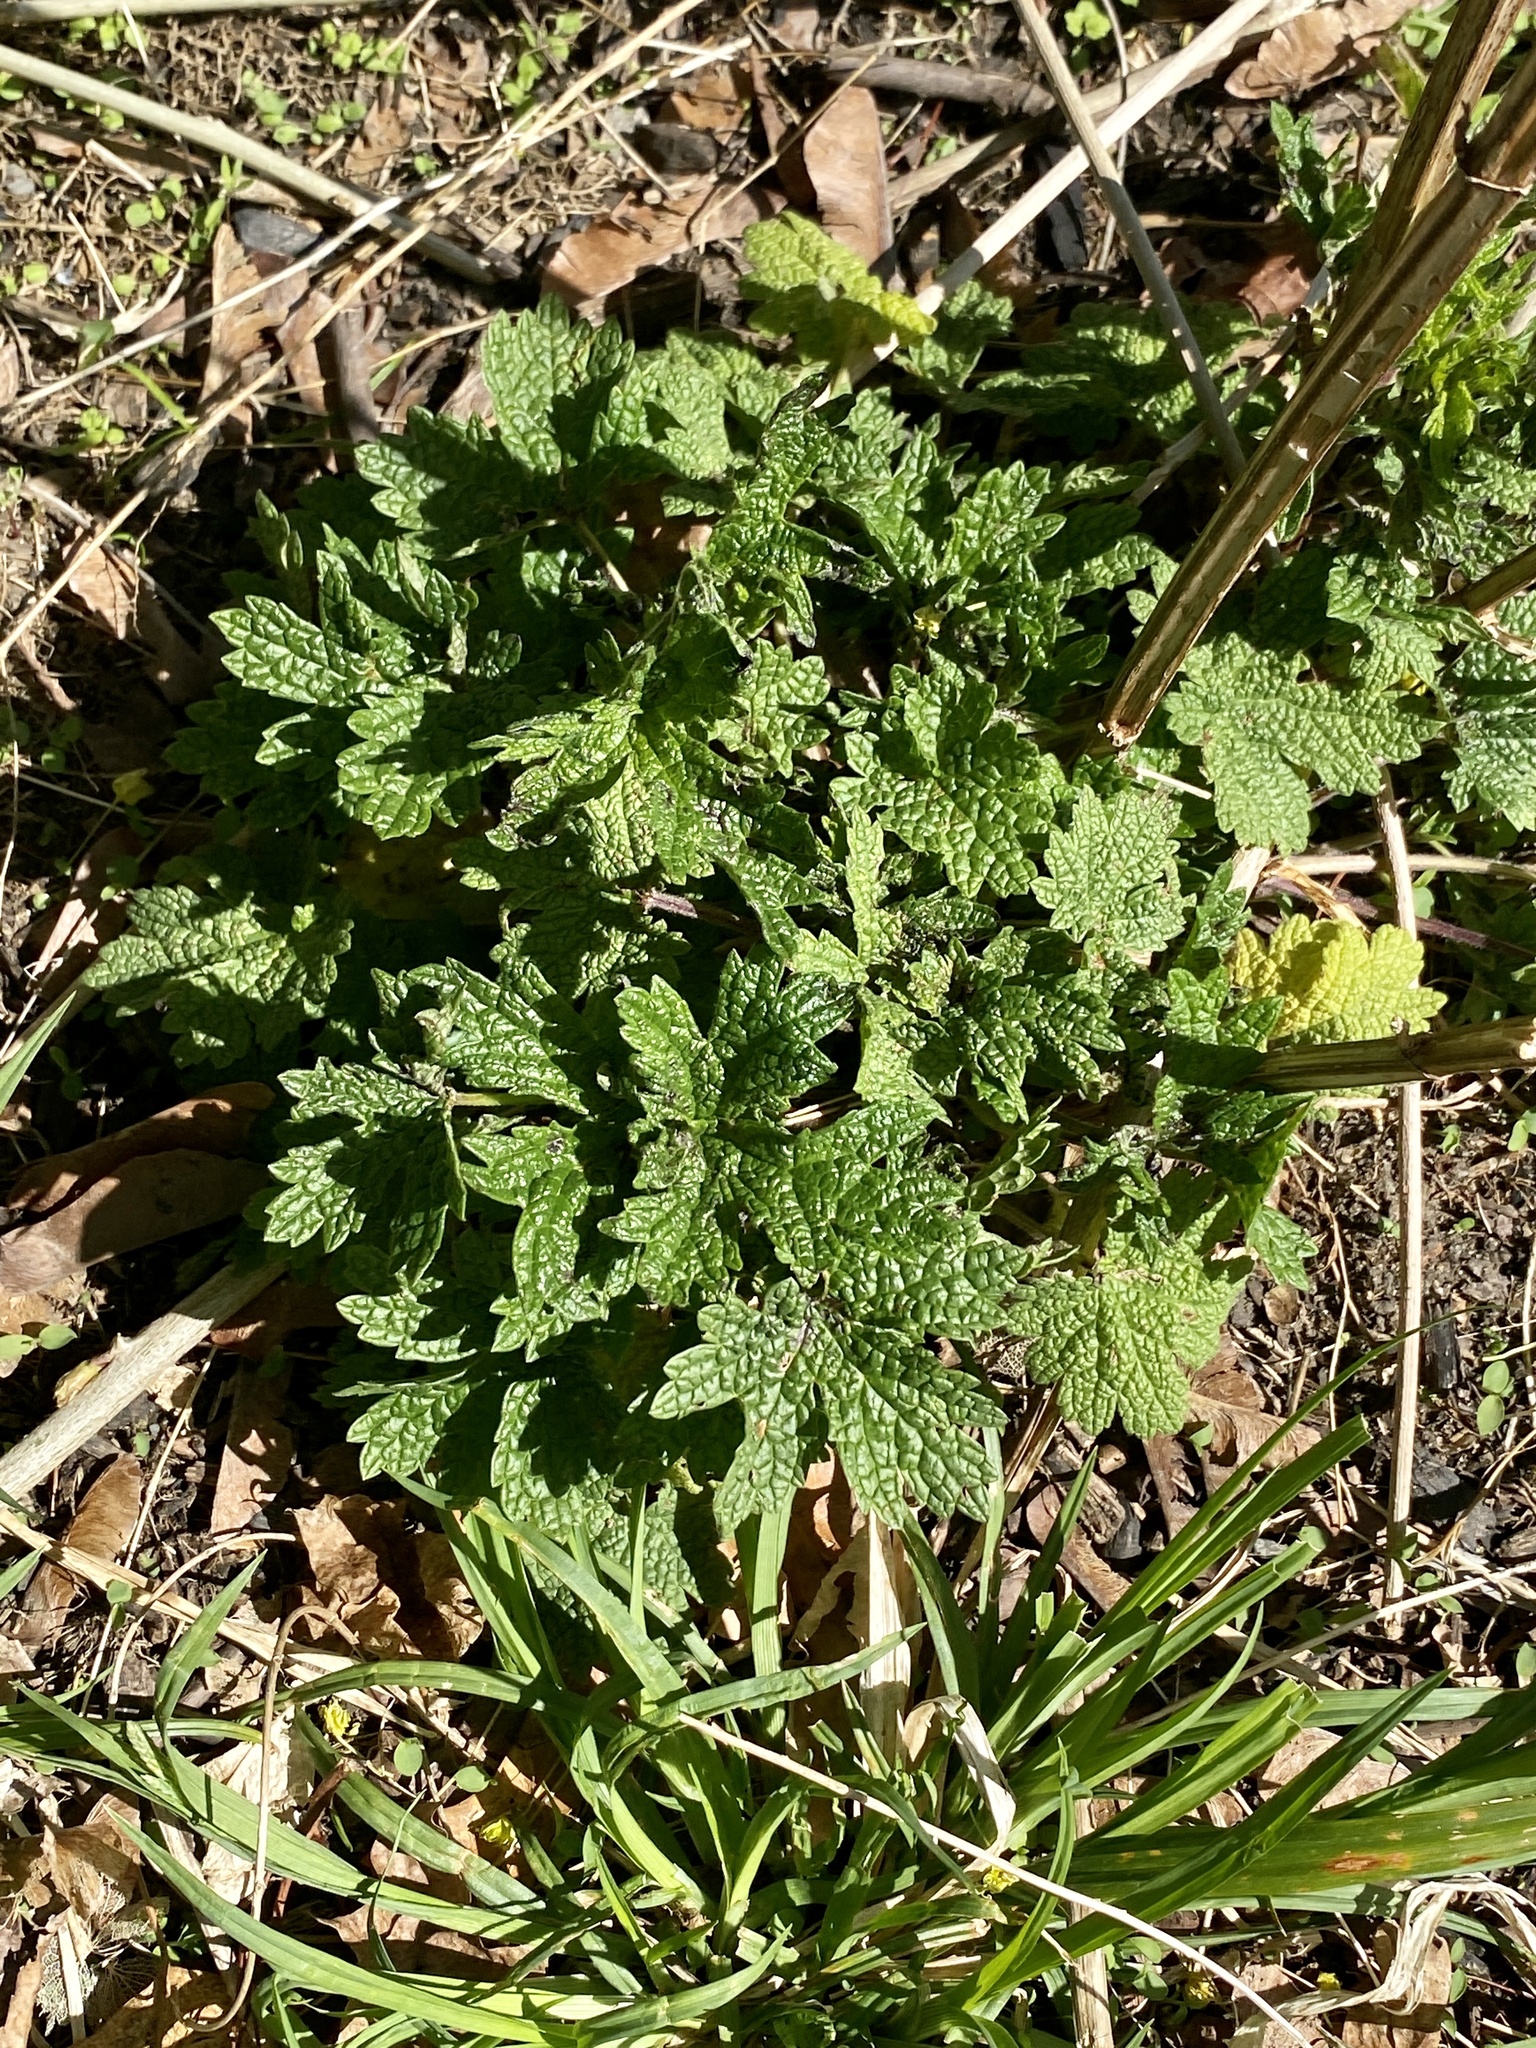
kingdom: Plantae
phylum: Tracheophyta
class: Magnoliopsida
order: Lamiales
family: Lamiaceae
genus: Leonurus
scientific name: Leonurus cardiaca
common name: Motherwort
